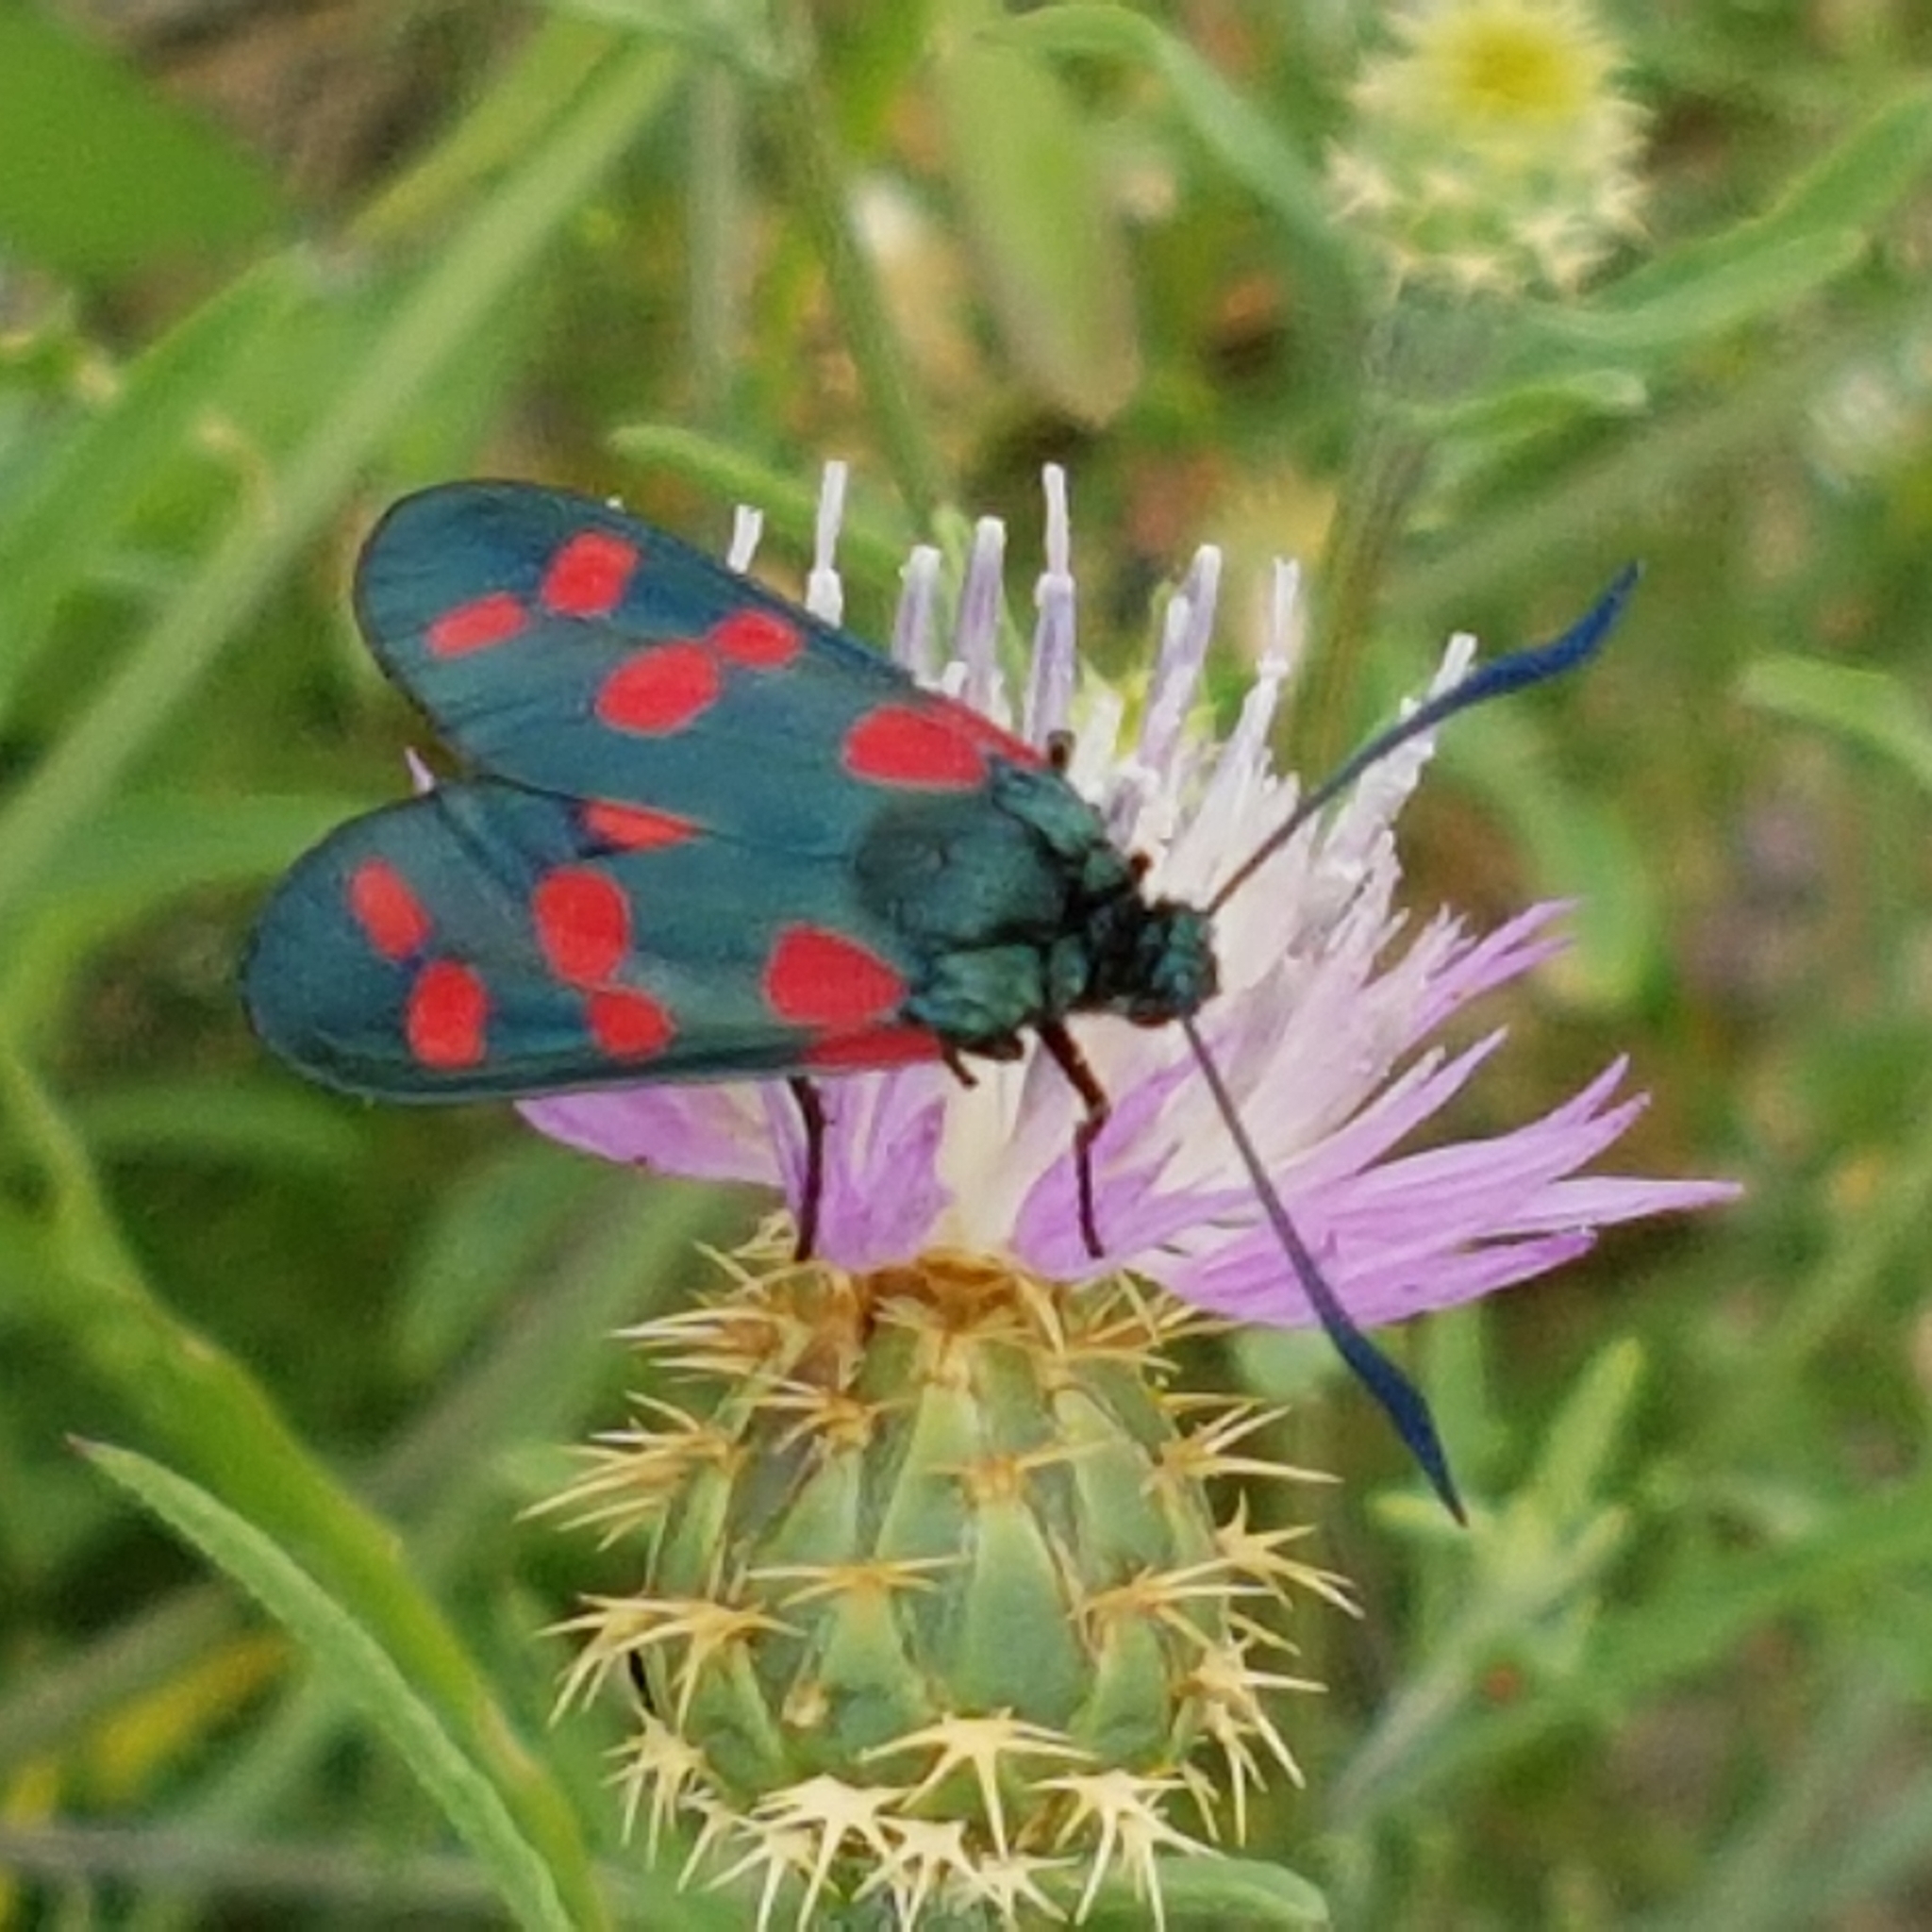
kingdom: Animalia
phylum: Arthropoda
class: Insecta
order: Lepidoptera
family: Zygaenidae
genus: Zygaena
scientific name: Zygaena filipendulae
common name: Six-spot burnet
